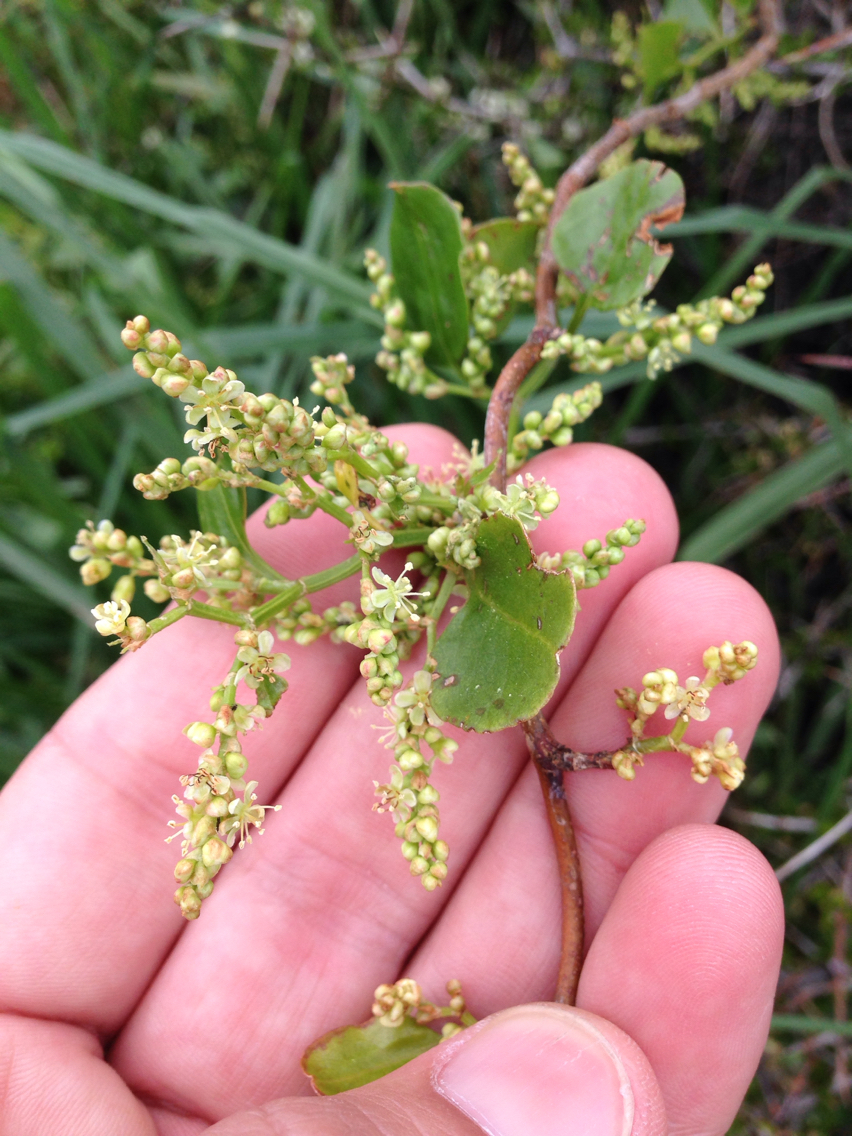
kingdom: Plantae
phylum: Tracheophyta
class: Magnoliopsida
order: Caryophyllales
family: Polygonaceae
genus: Muehlenbeckia
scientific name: Muehlenbeckia australis
